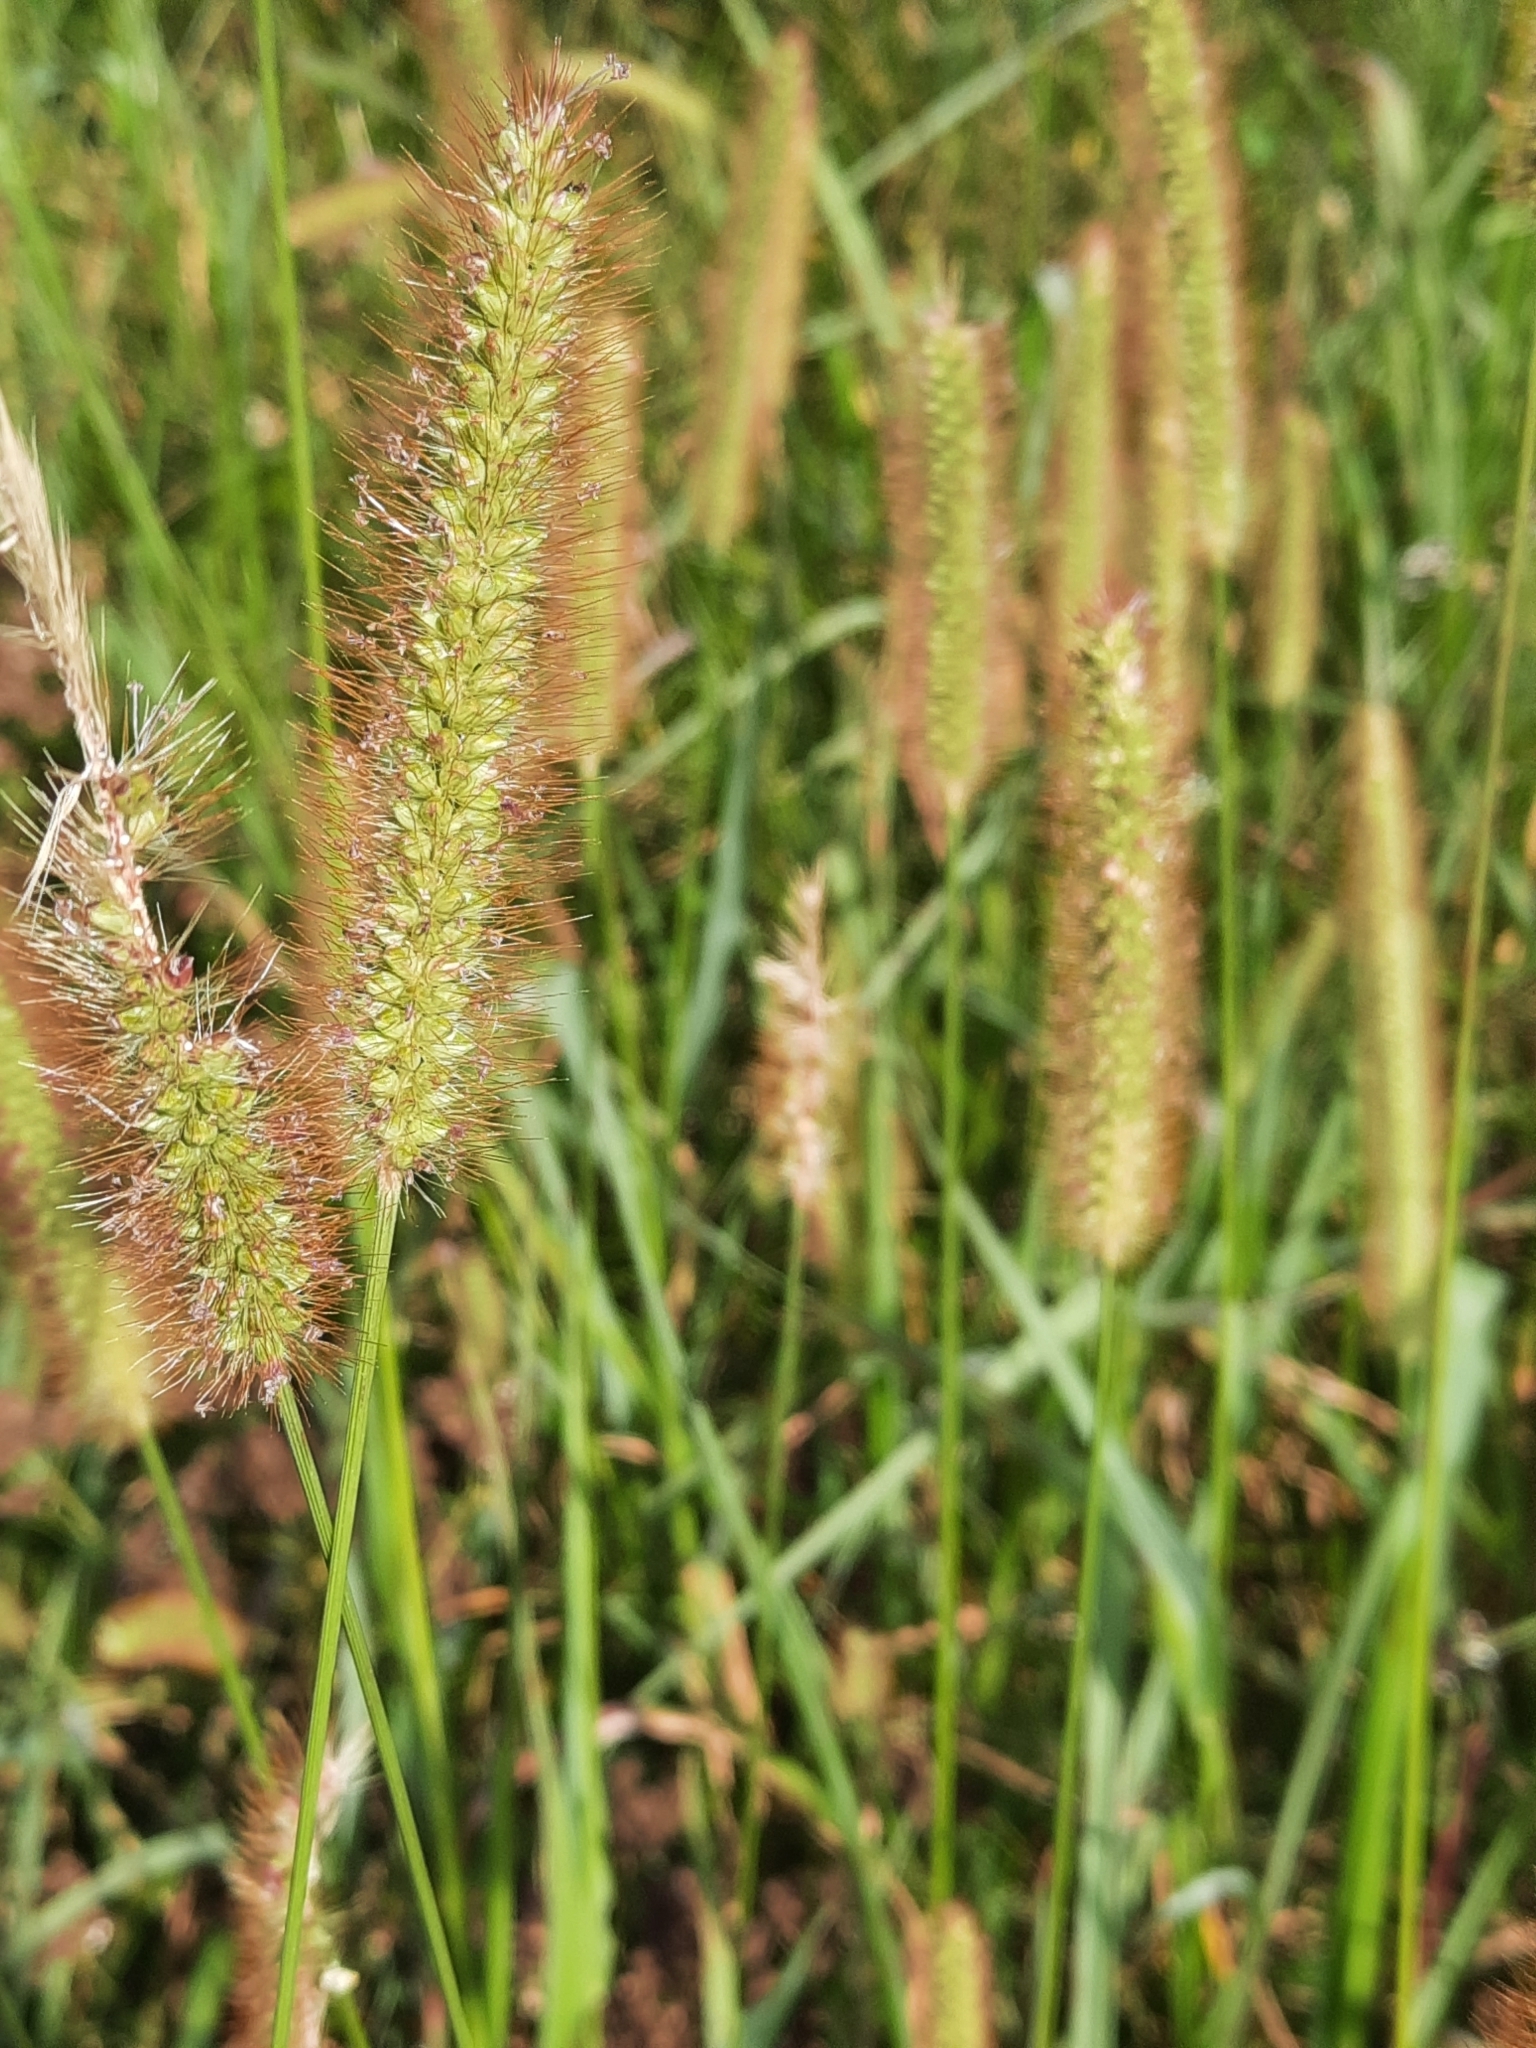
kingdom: Plantae
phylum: Tracheophyta
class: Liliopsida
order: Poales
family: Poaceae
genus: Setaria
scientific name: Setaria pumila
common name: Yellow bristle-grass
